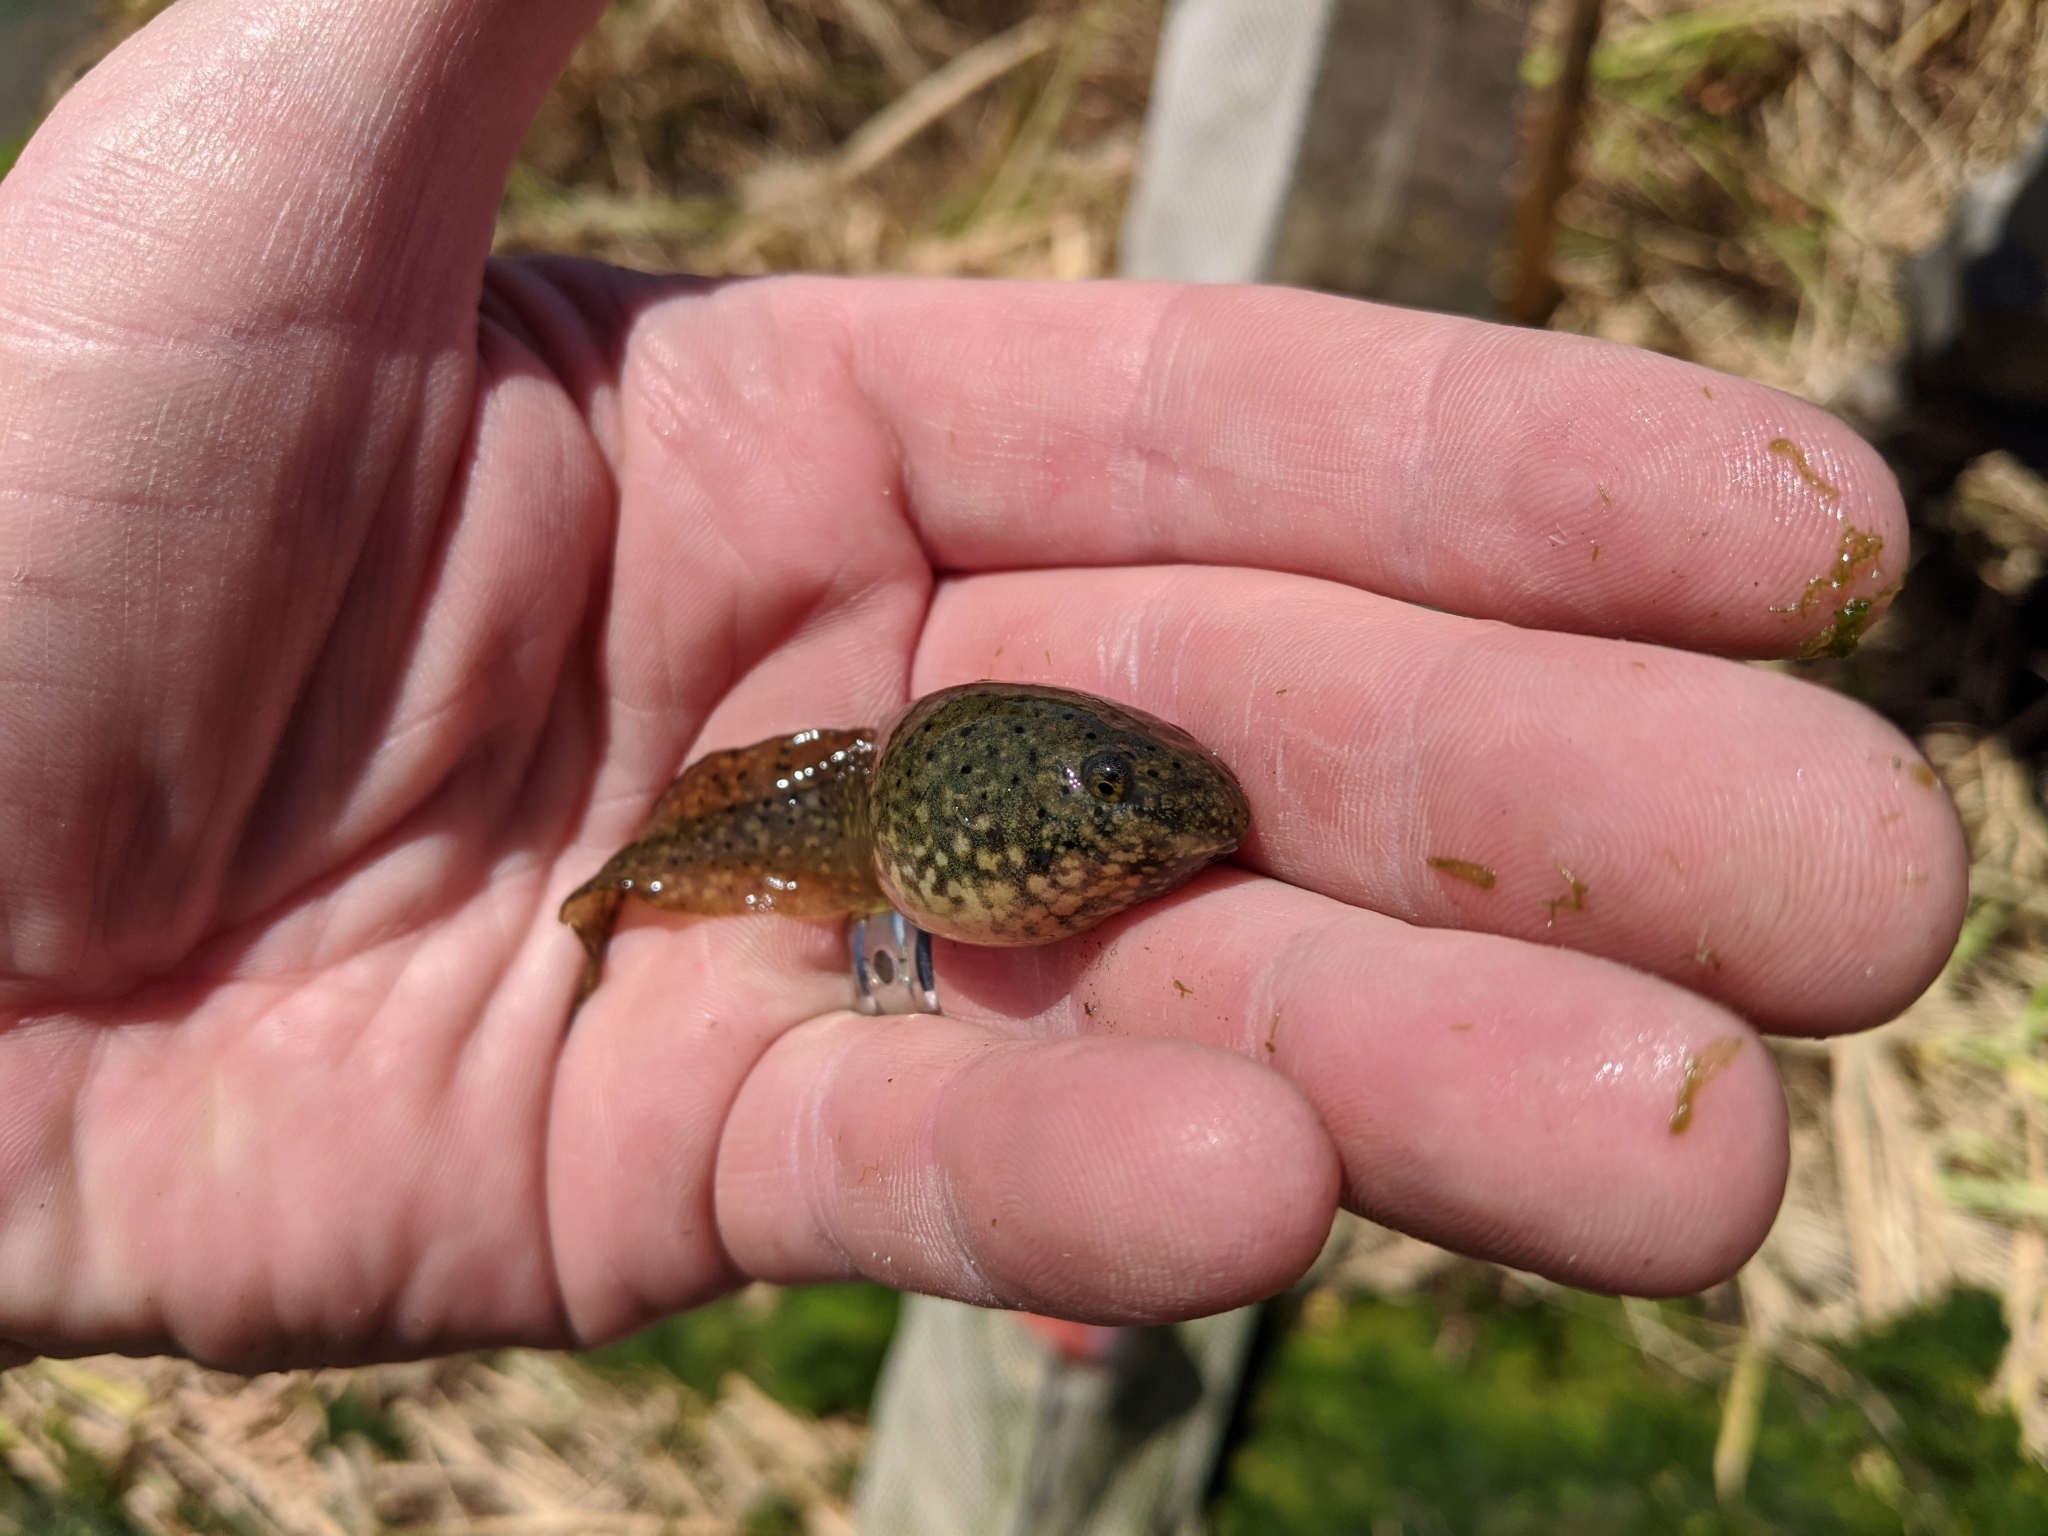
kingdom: Animalia
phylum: Chordata
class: Amphibia
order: Anura
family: Ranidae
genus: Lithobates
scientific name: Lithobates catesbeianus
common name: American bullfrog
